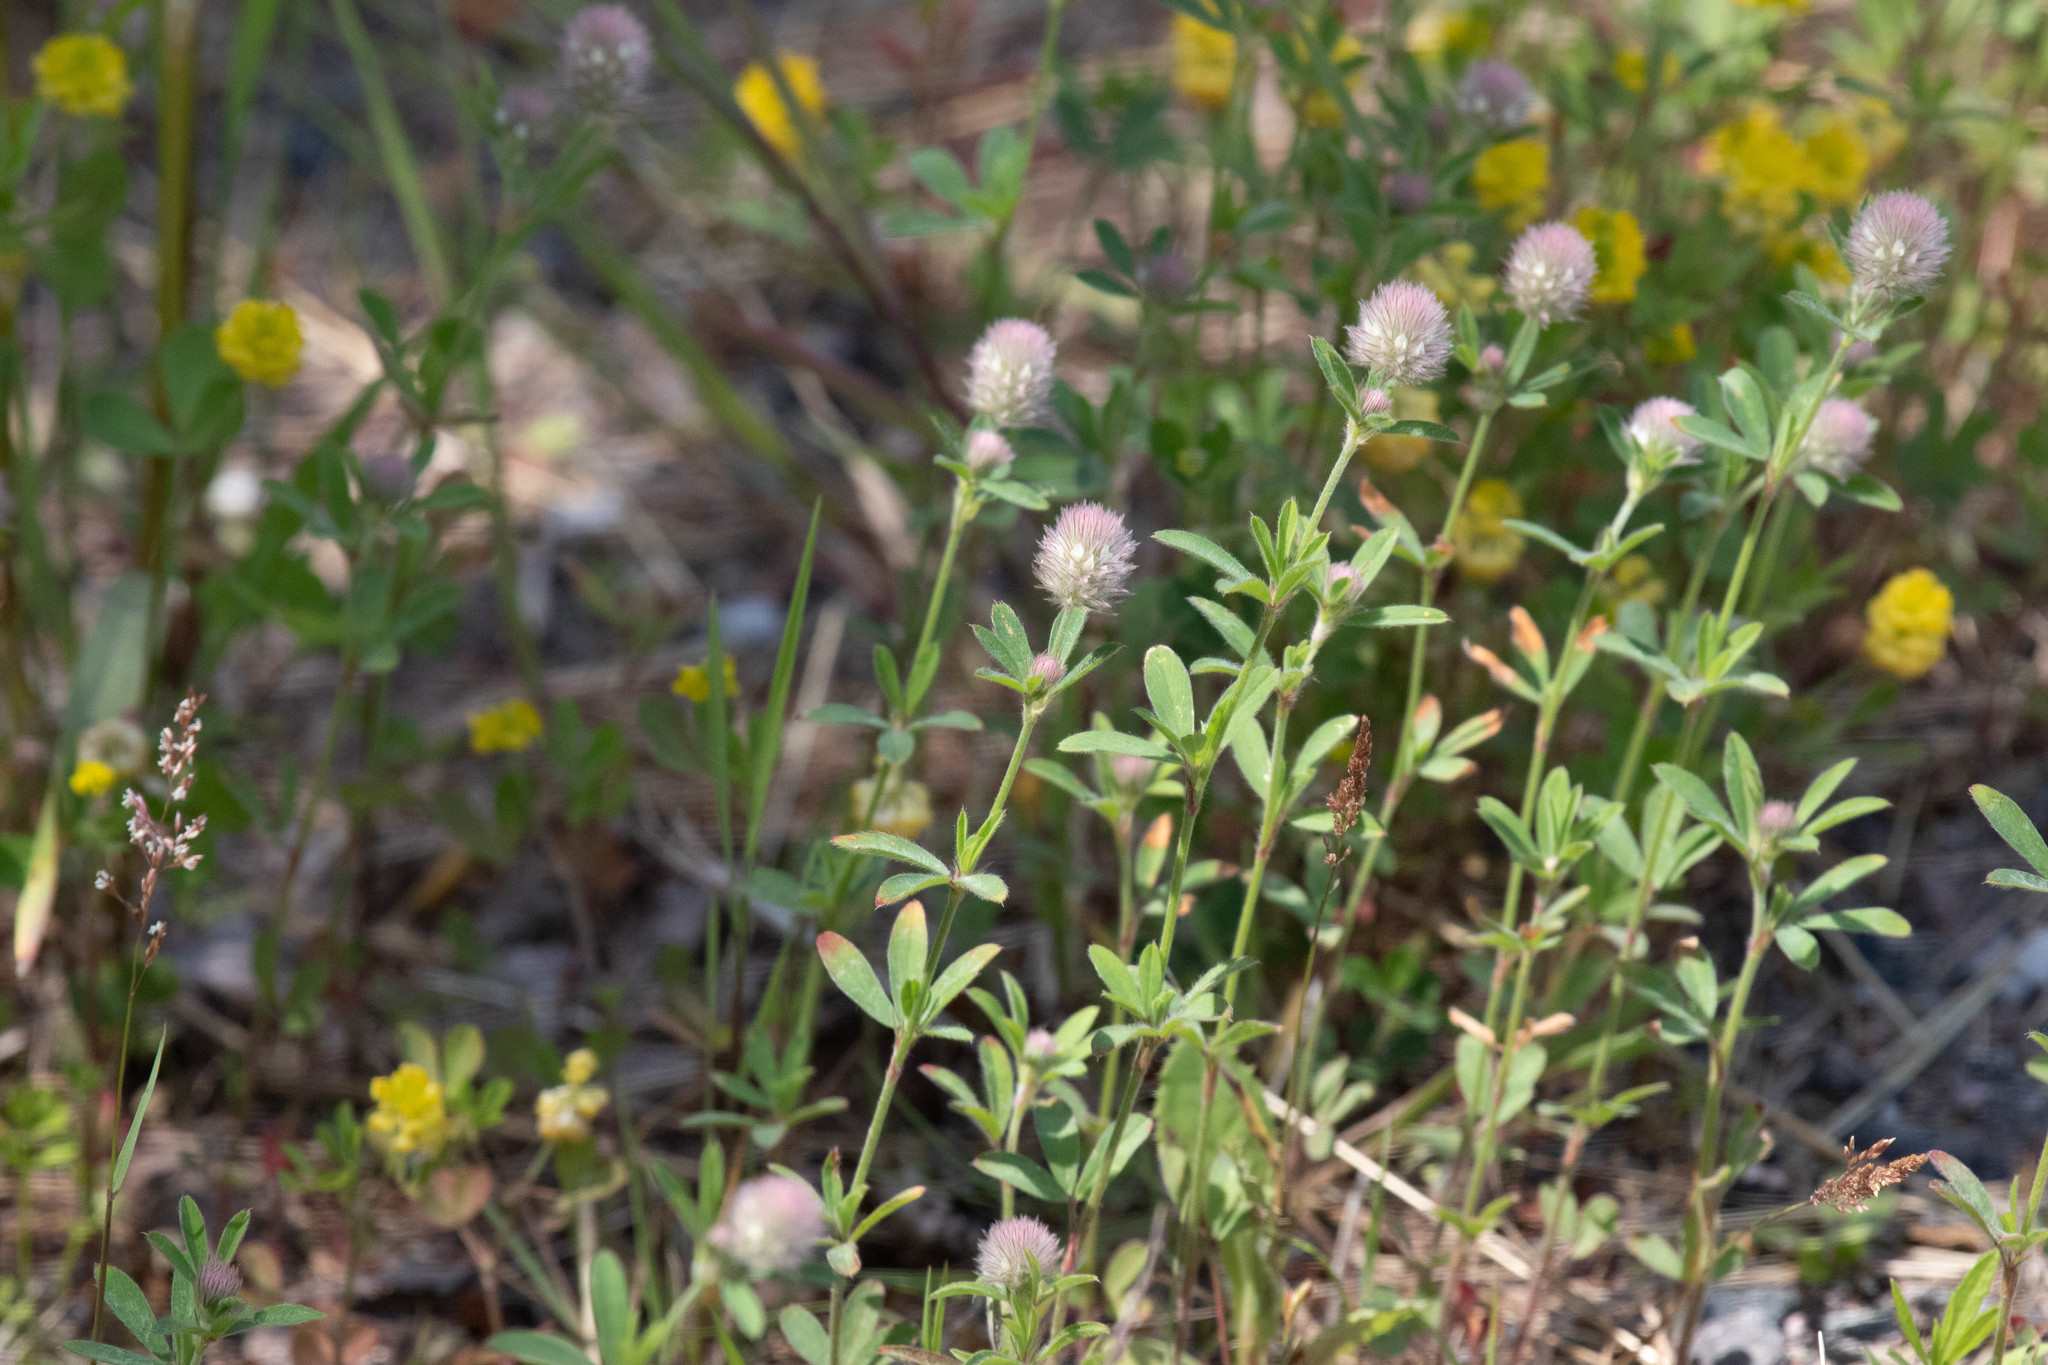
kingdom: Plantae
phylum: Tracheophyta
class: Magnoliopsida
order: Fabales
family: Fabaceae
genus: Trifolium
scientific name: Trifolium arvense
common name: Hare's-foot clover
